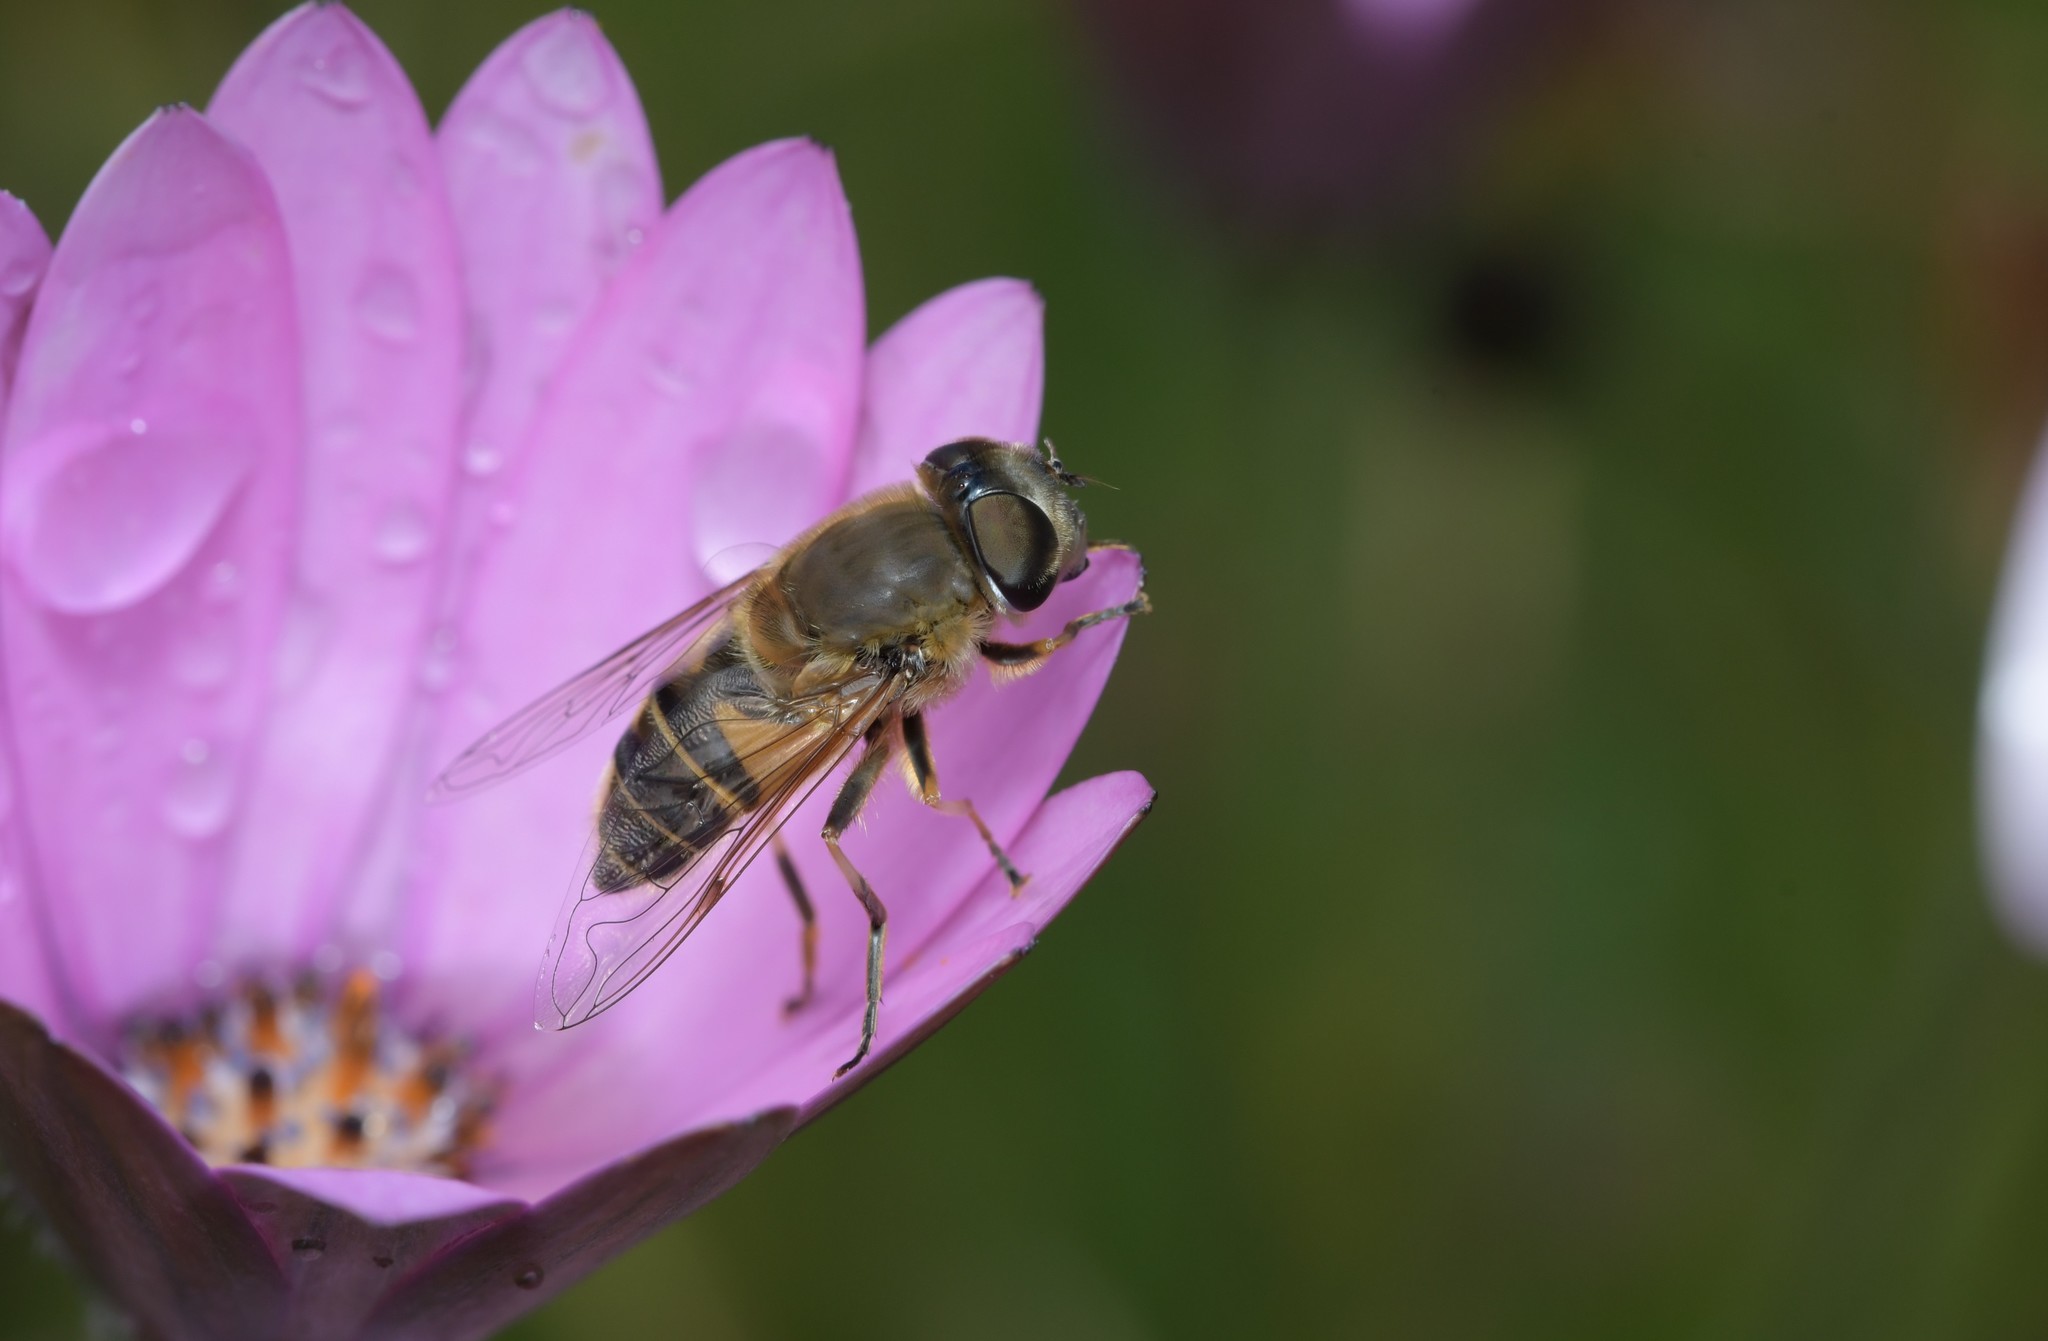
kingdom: Animalia
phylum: Arthropoda
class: Insecta
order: Diptera
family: Syrphidae
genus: Eristalis
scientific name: Eristalis pertinax
